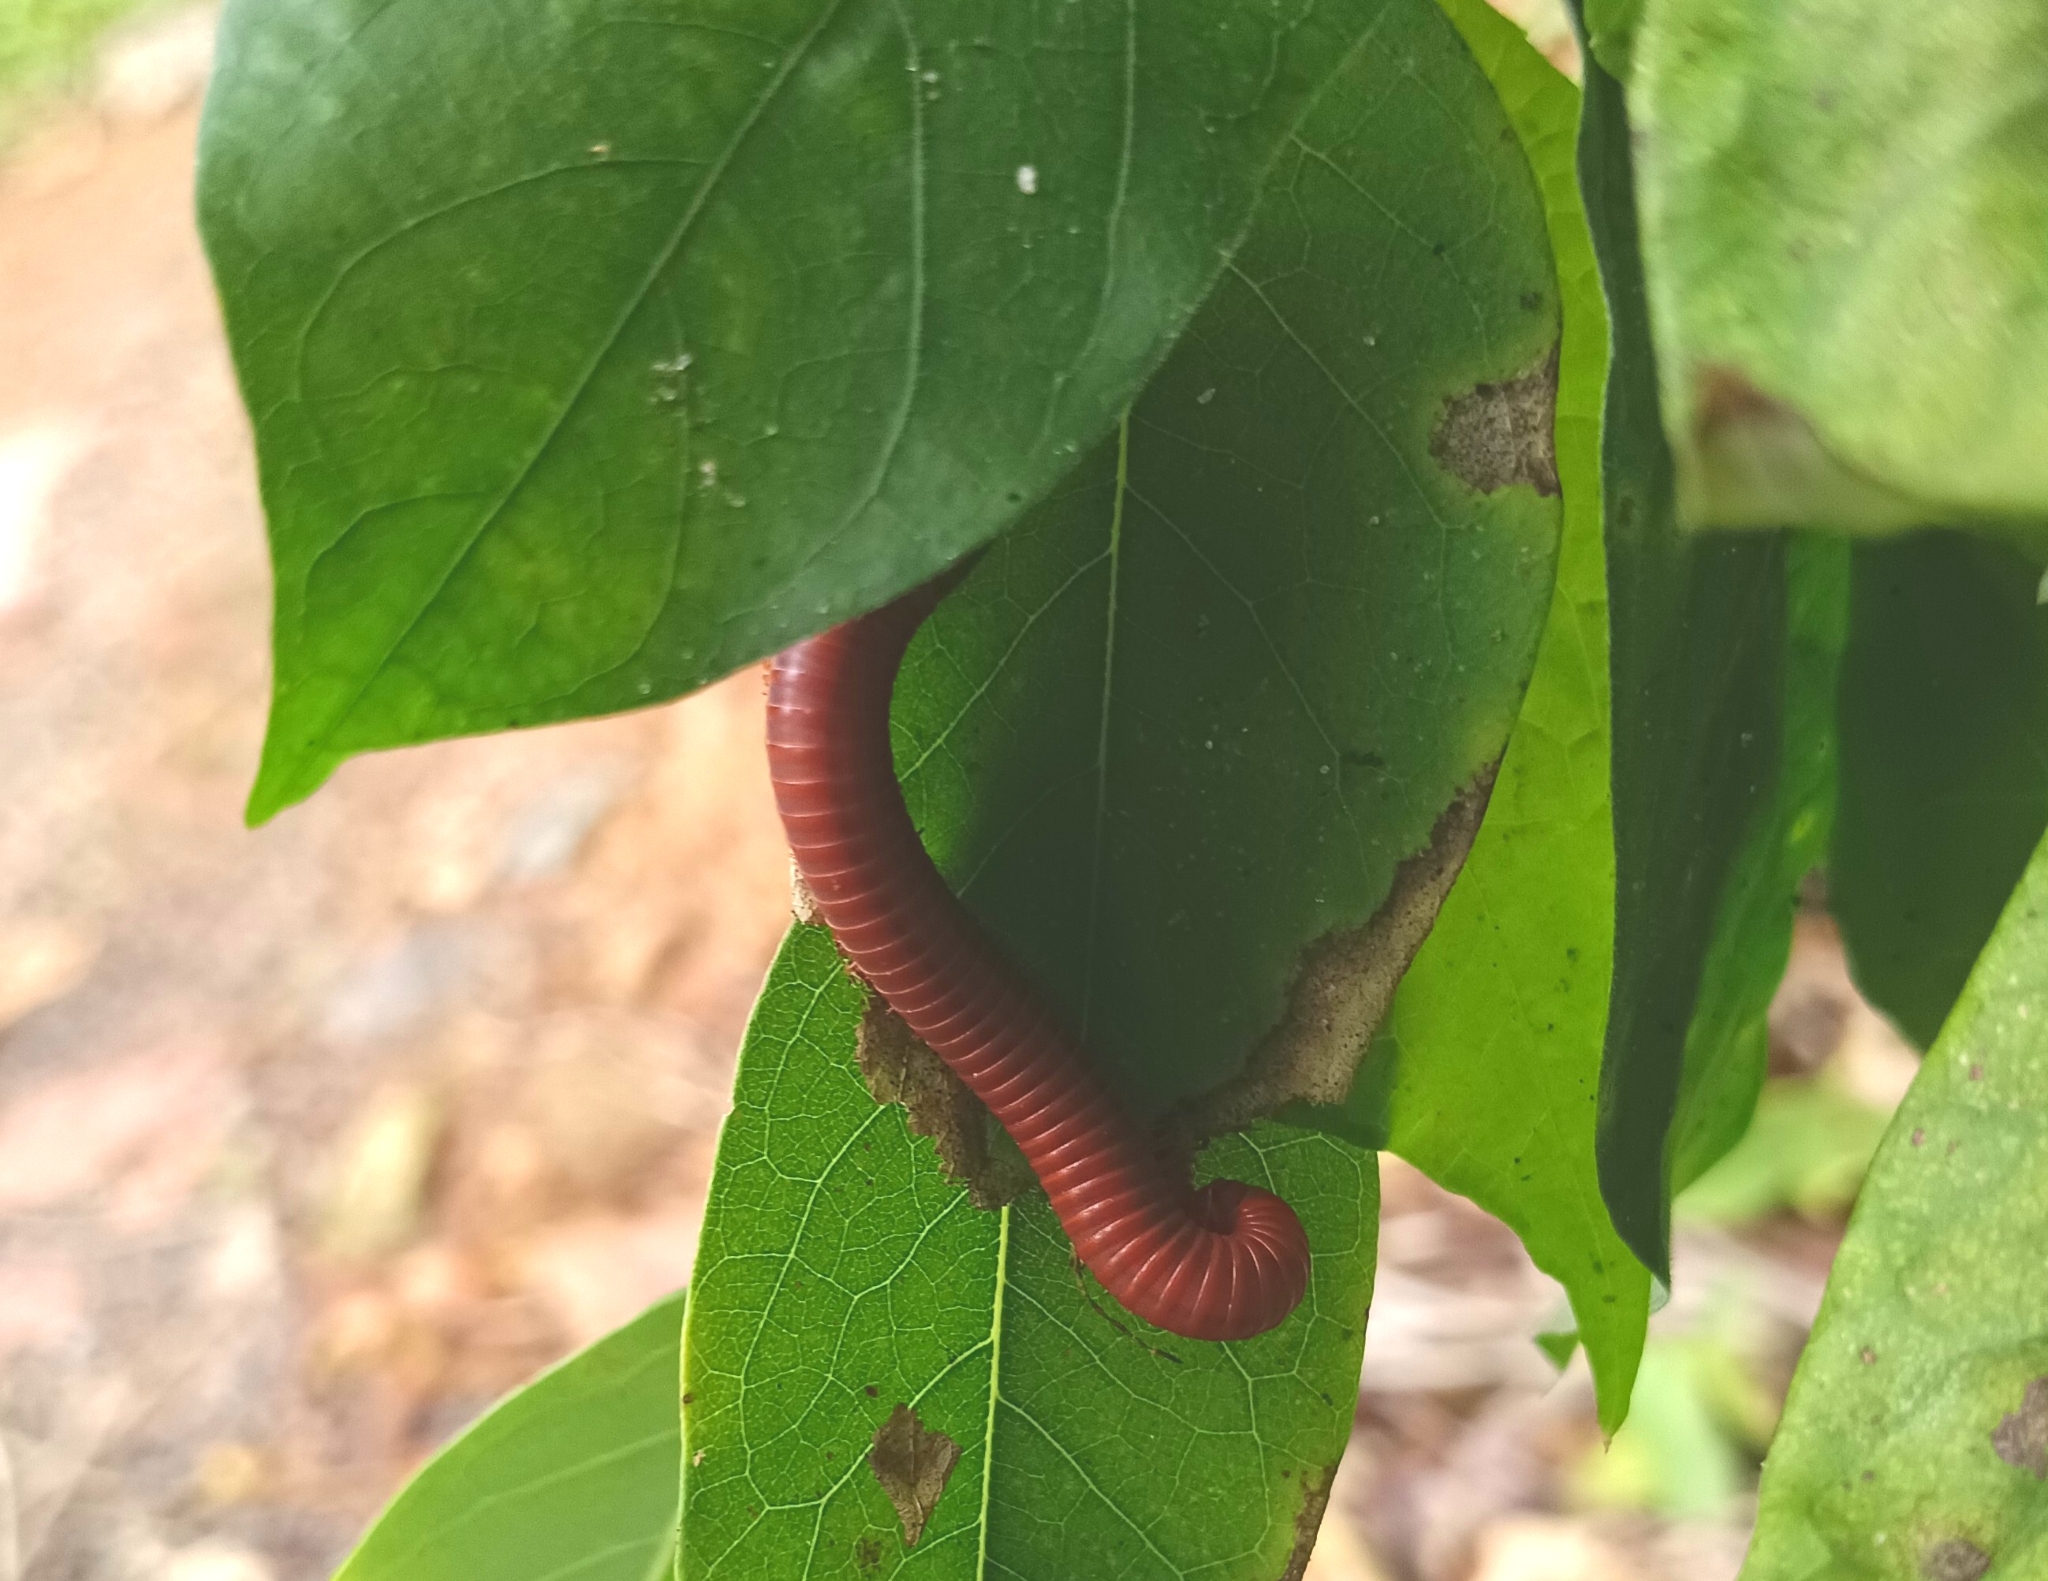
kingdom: Animalia
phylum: Arthropoda
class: Diplopoda
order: Spirobolida
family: Pachybolidae
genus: Trigoniulus
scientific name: Trigoniulus corallinus
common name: Millipede
